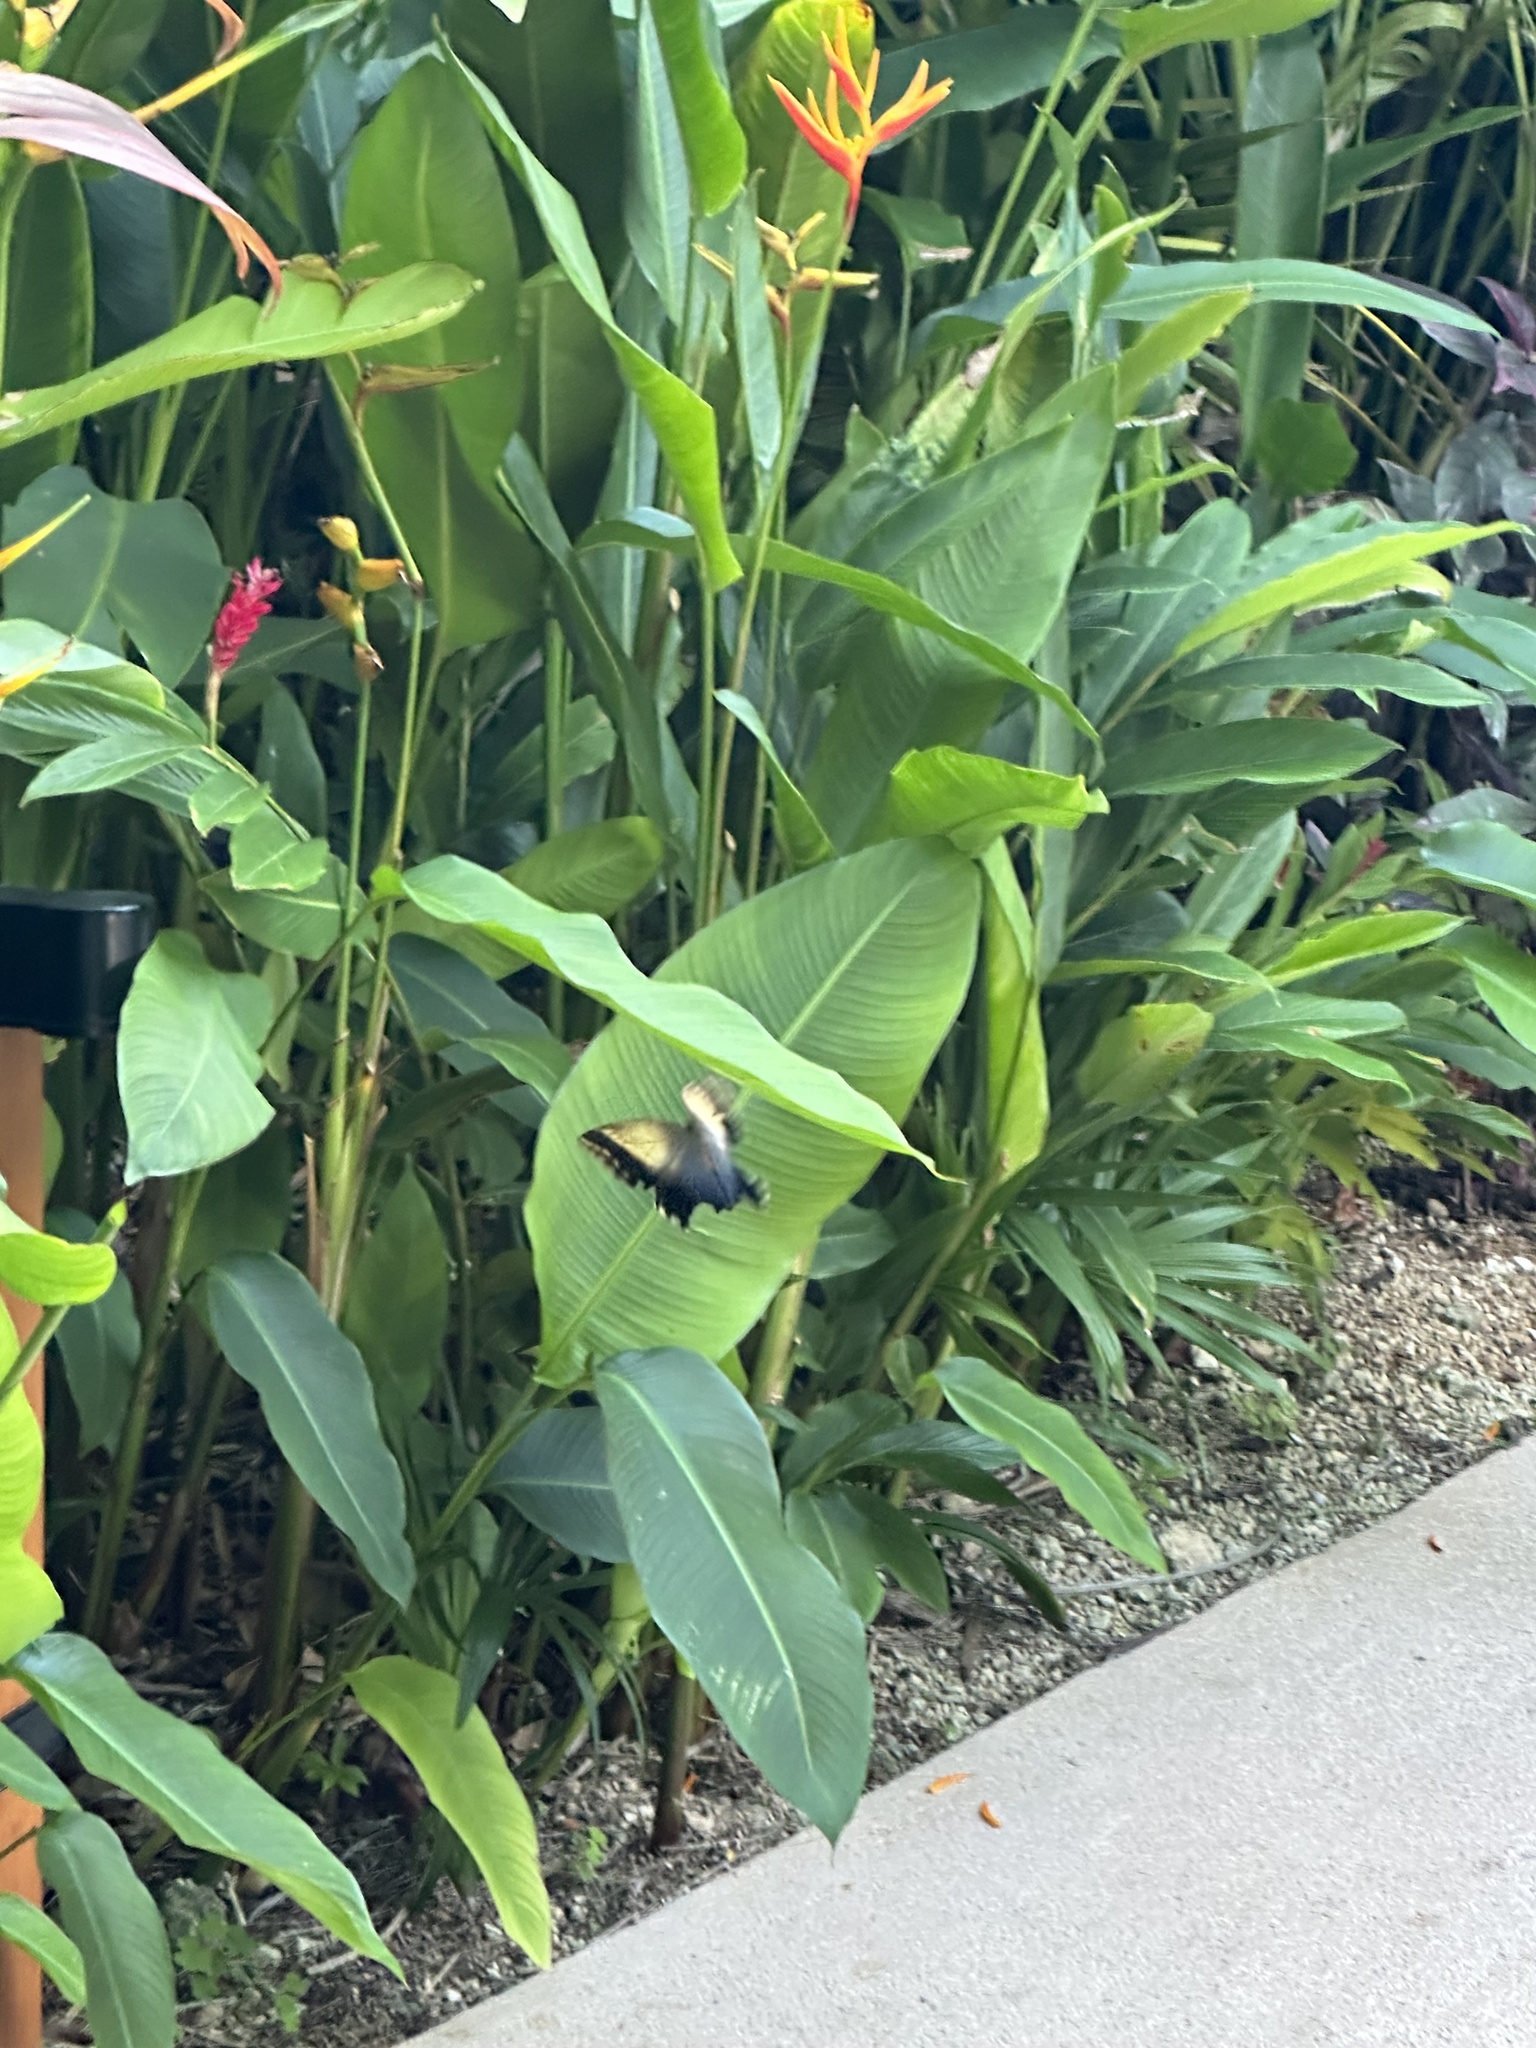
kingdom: Animalia
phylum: Arthropoda
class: Insecta
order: Lepidoptera
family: Nymphalidae
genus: Caligo
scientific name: Caligo telamonius
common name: Pale owl-butterfly
